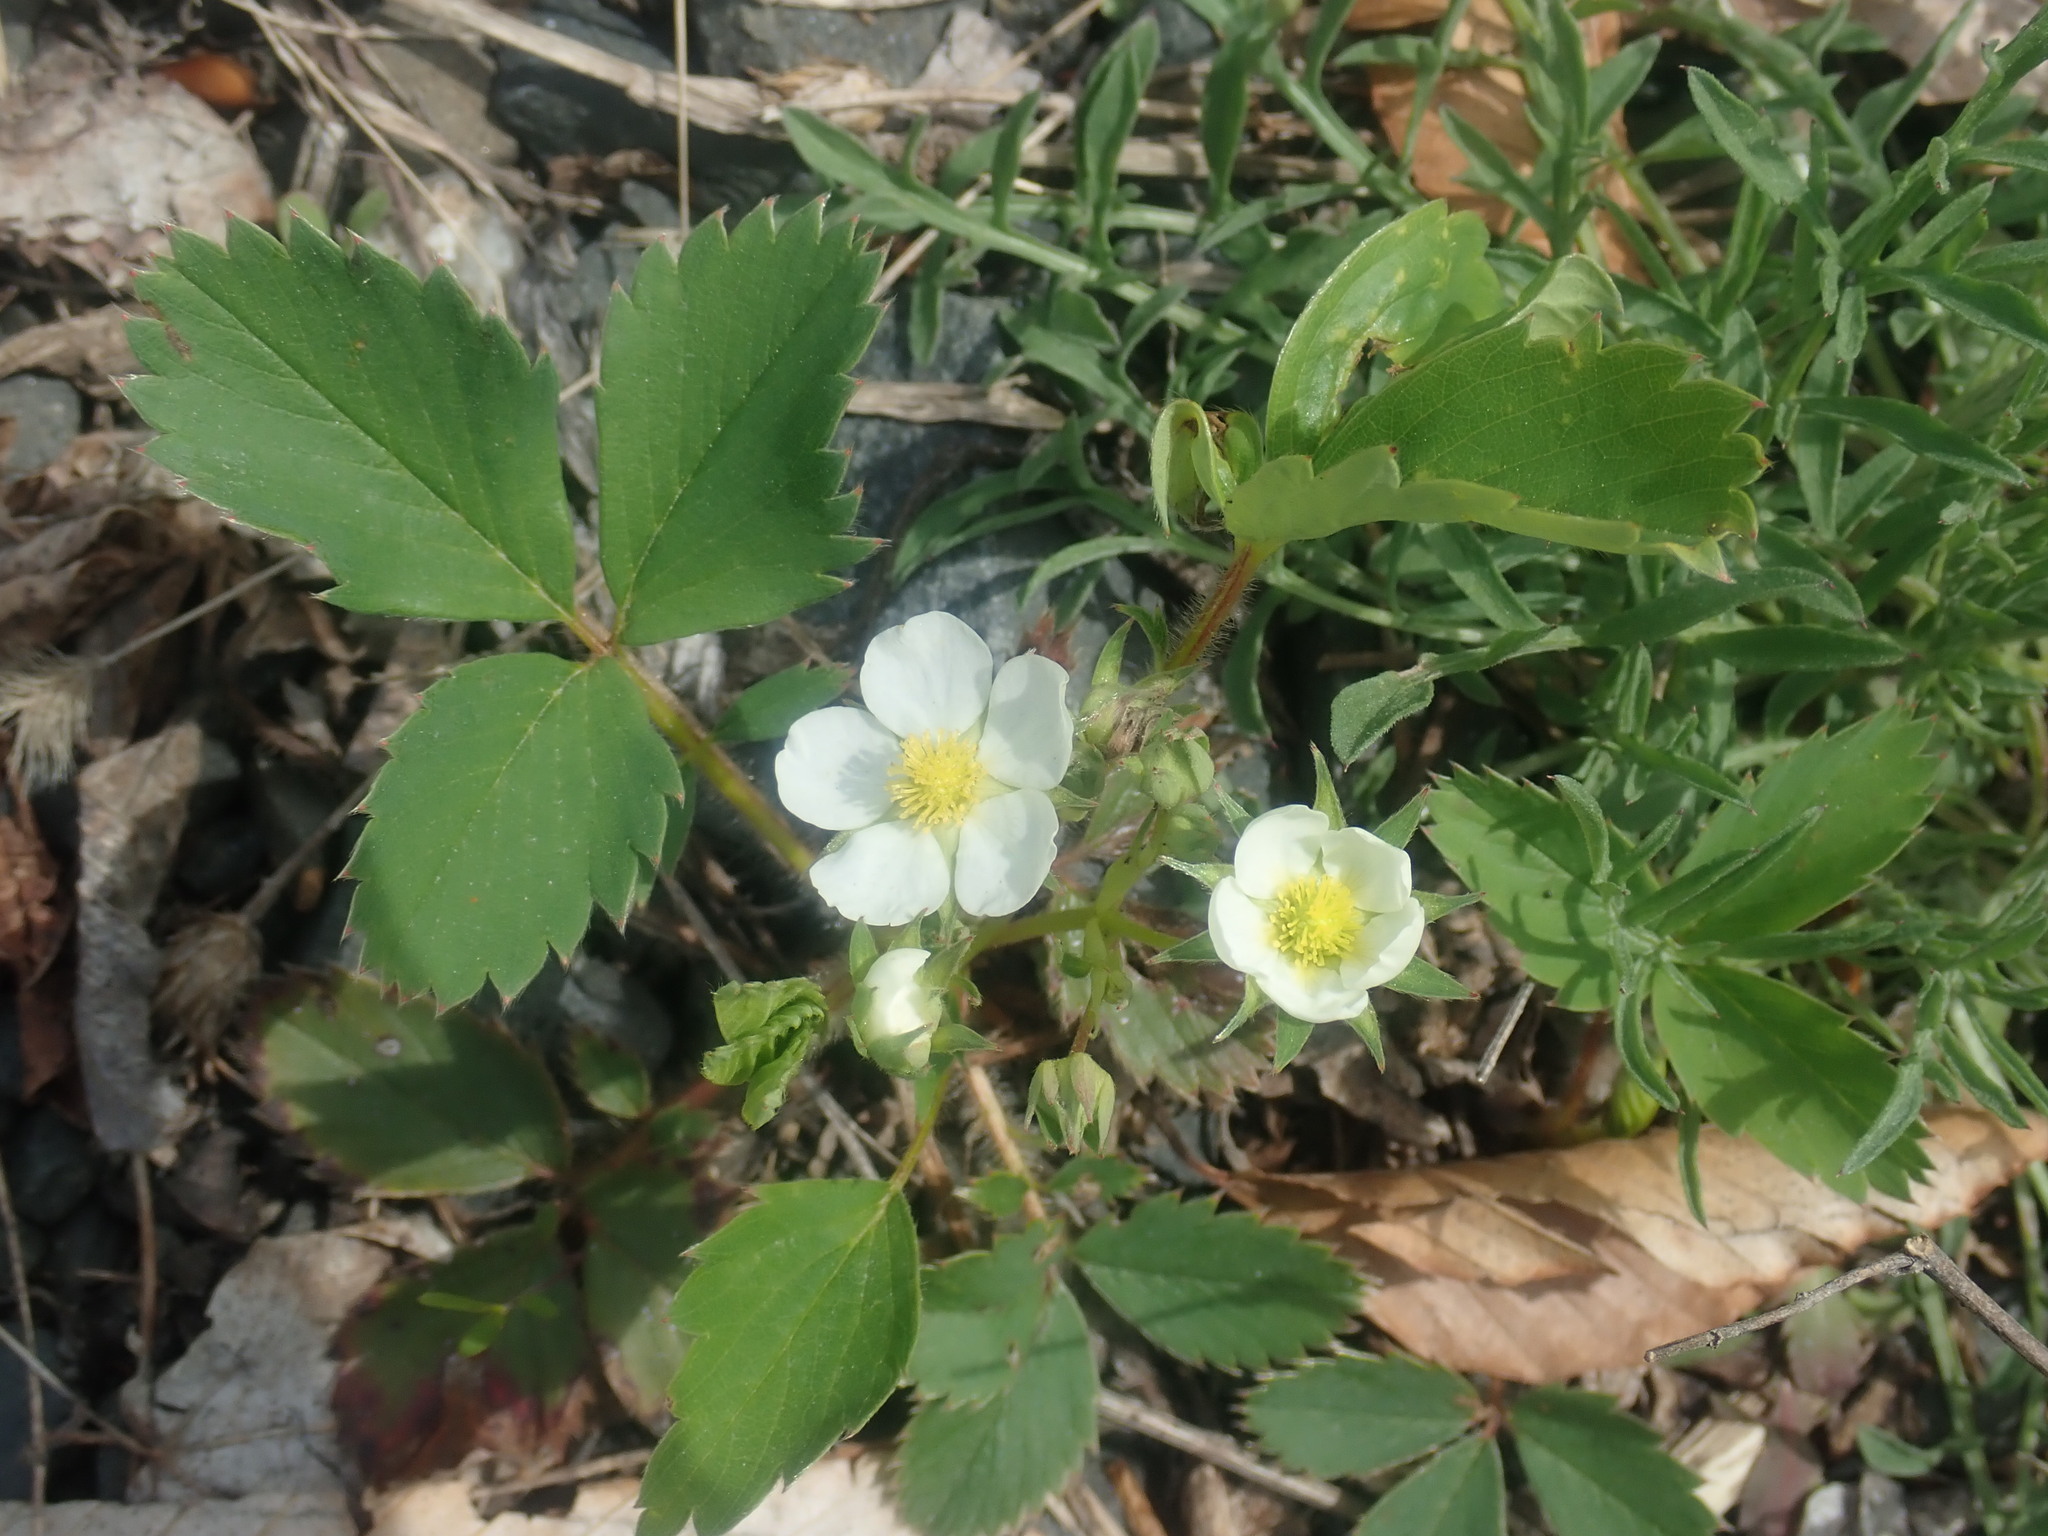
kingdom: Plantae
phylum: Tracheophyta
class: Magnoliopsida
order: Rosales
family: Rosaceae
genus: Fragaria
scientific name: Fragaria virginiana
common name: Thickleaved wild strawberry
